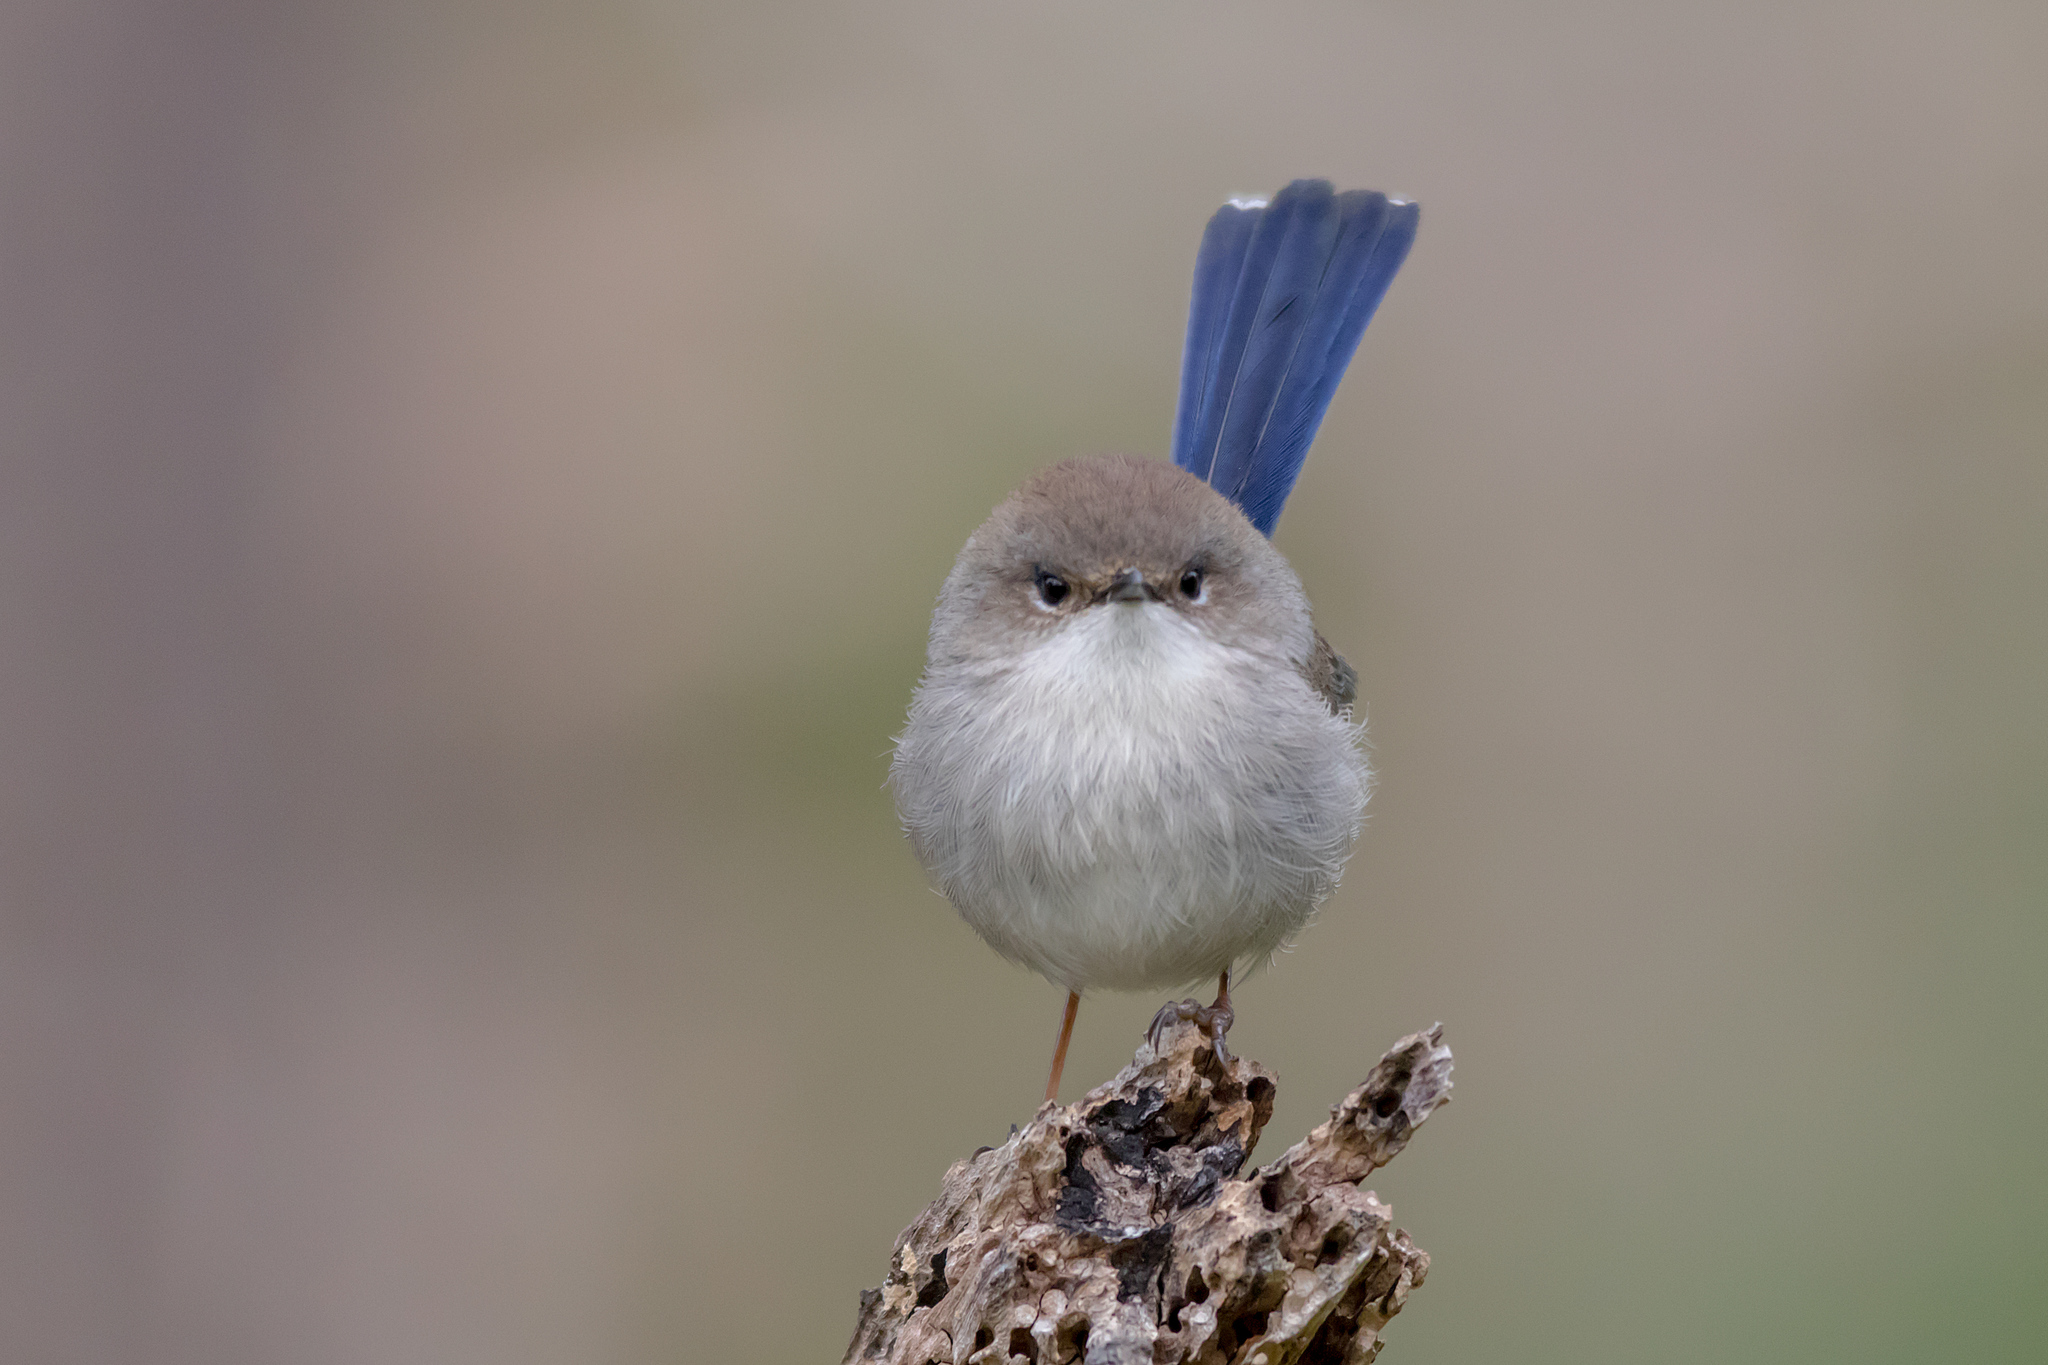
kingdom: Animalia
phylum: Chordata
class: Aves
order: Passeriformes
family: Maluridae
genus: Malurus
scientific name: Malurus cyaneus
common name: Superb fairywren
